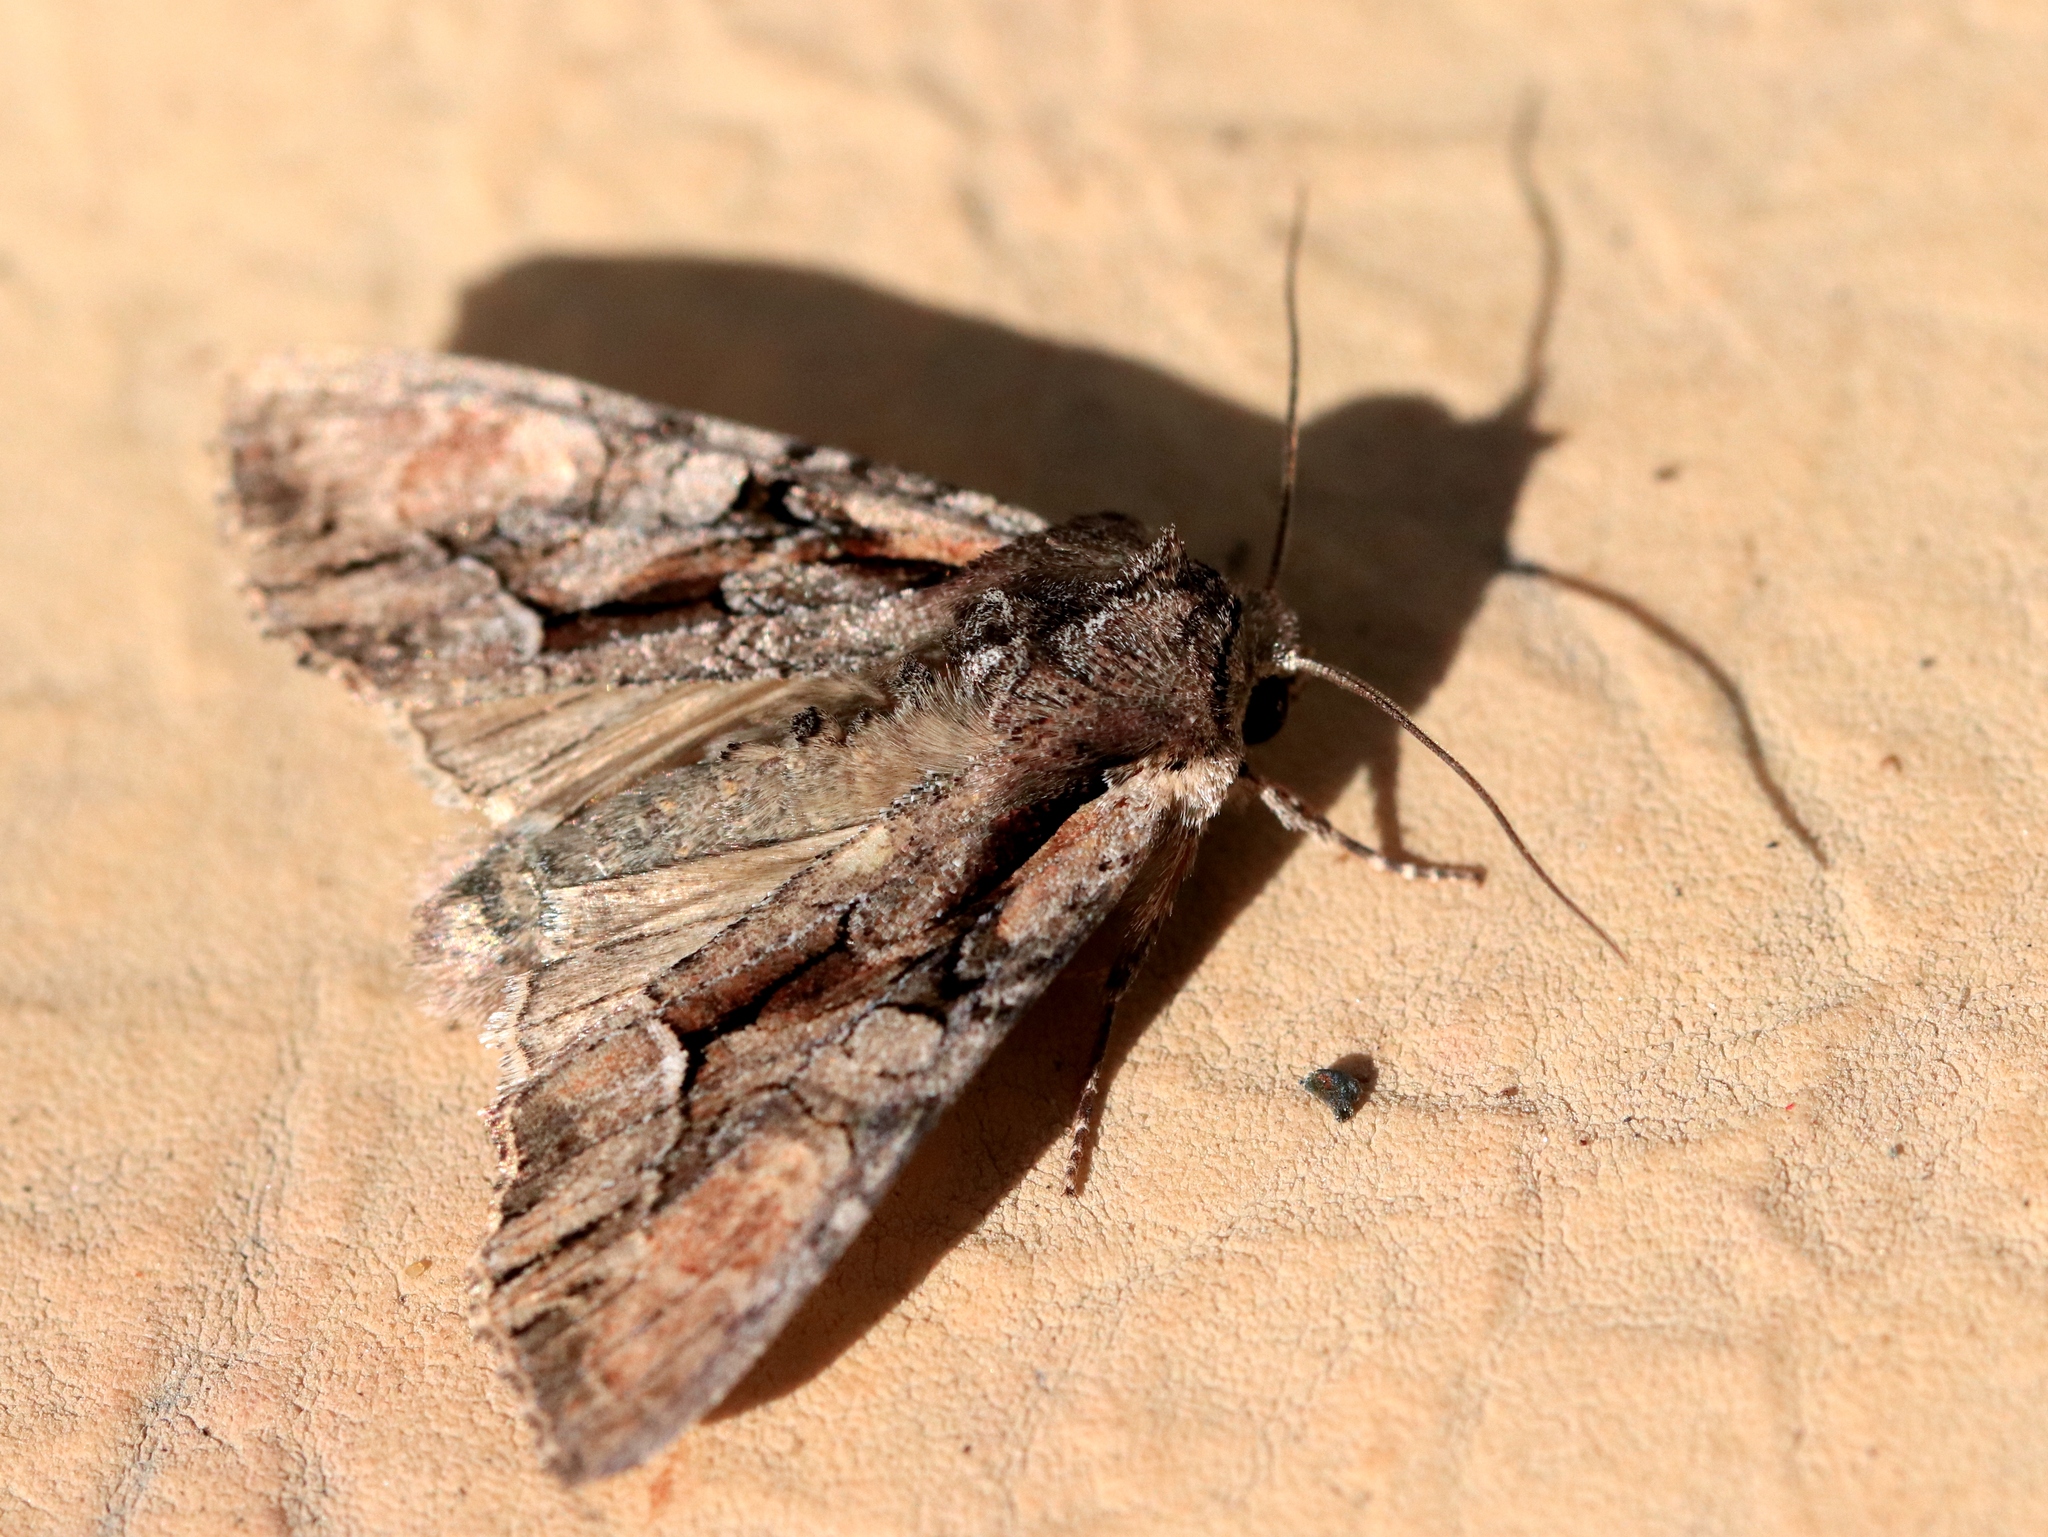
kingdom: Animalia
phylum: Arthropoda
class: Insecta
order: Lepidoptera
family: Noctuidae
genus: Lacanobia
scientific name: Lacanobia subjuncta
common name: Speckled cutworm moth
